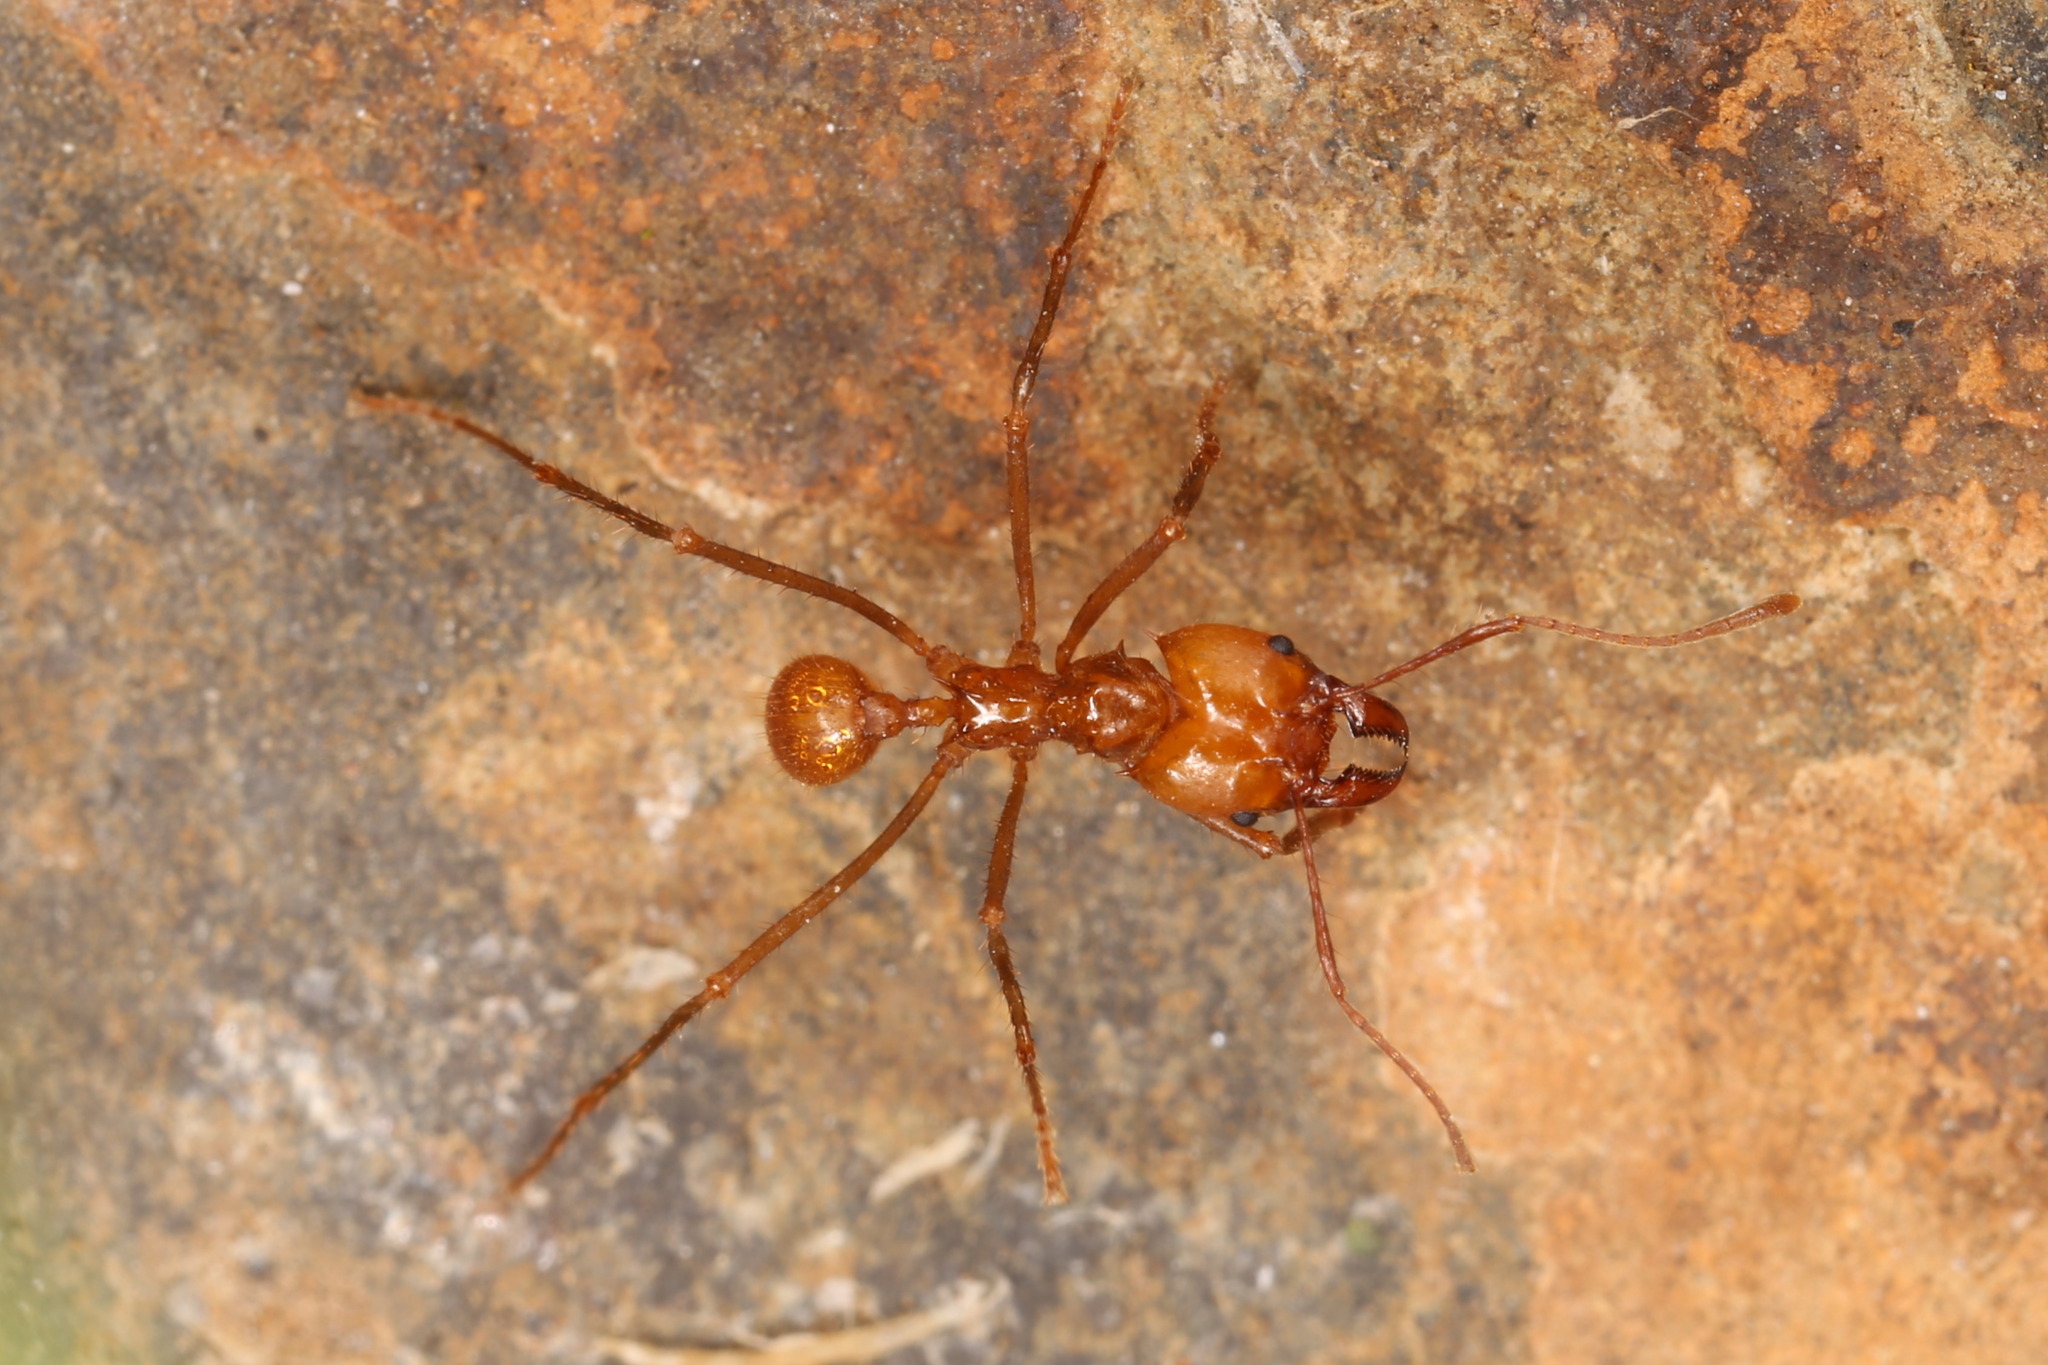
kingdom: Animalia
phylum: Arthropoda
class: Insecta
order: Hymenoptera
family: Formicidae
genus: Atta
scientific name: Atta cephalotes
